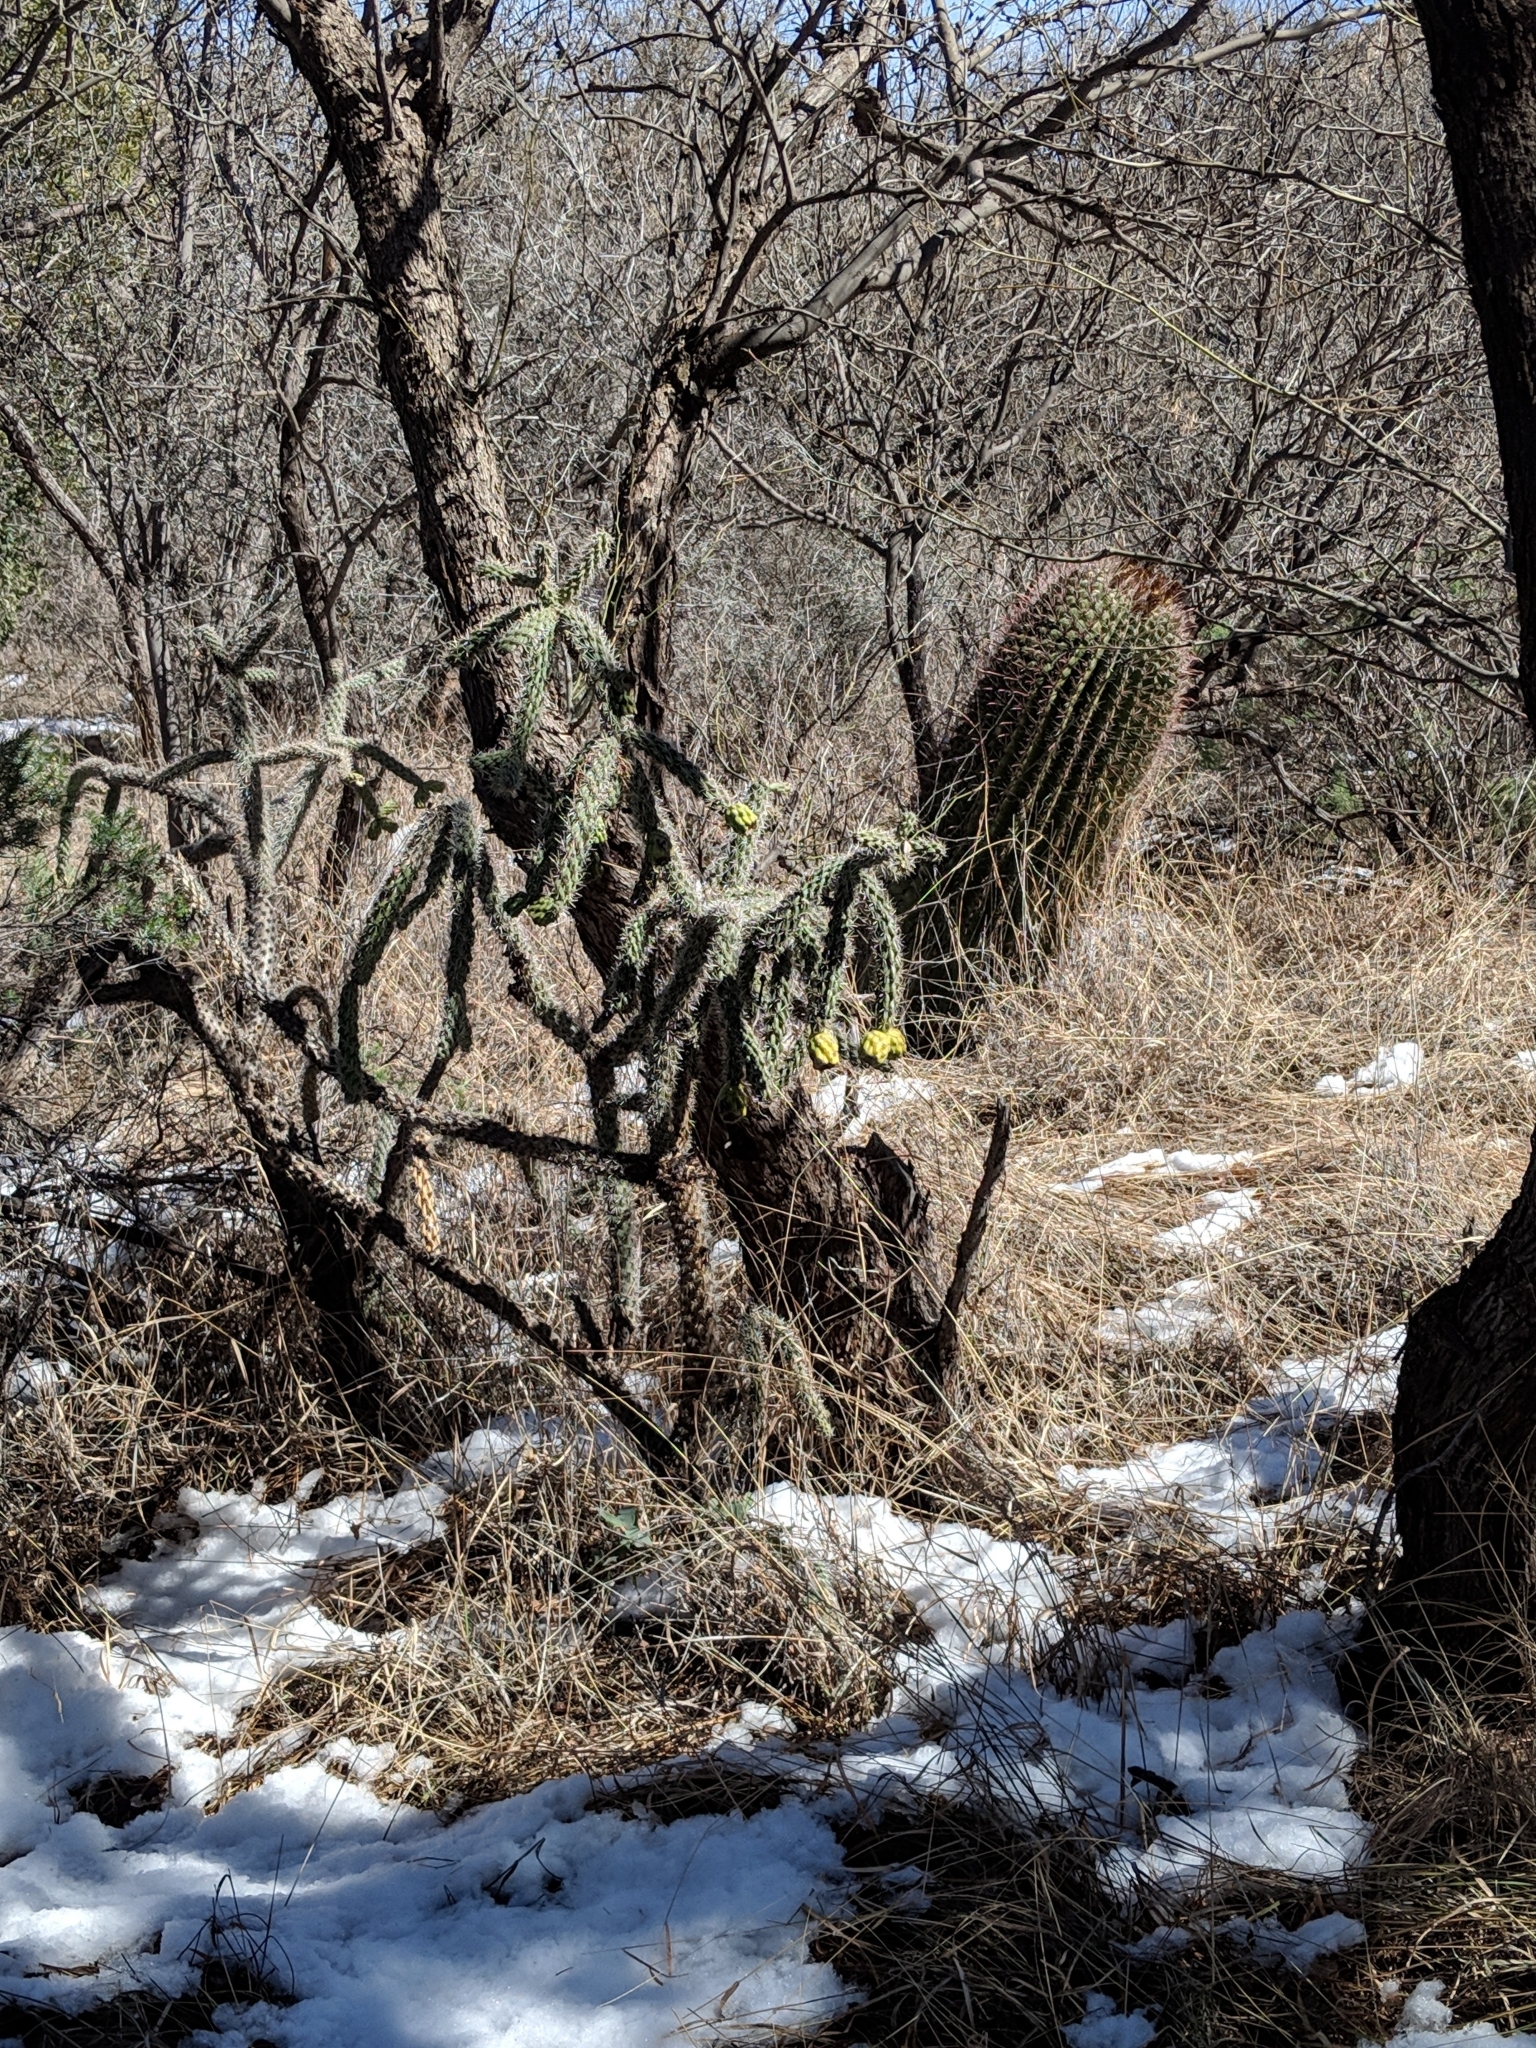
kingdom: Plantae
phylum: Tracheophyta
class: Magnoliopsida
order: Caryophyllales
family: Cactaceae
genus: Cylindropuntia
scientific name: Cylindropuntia imbricata
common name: Candelabrum cactus
